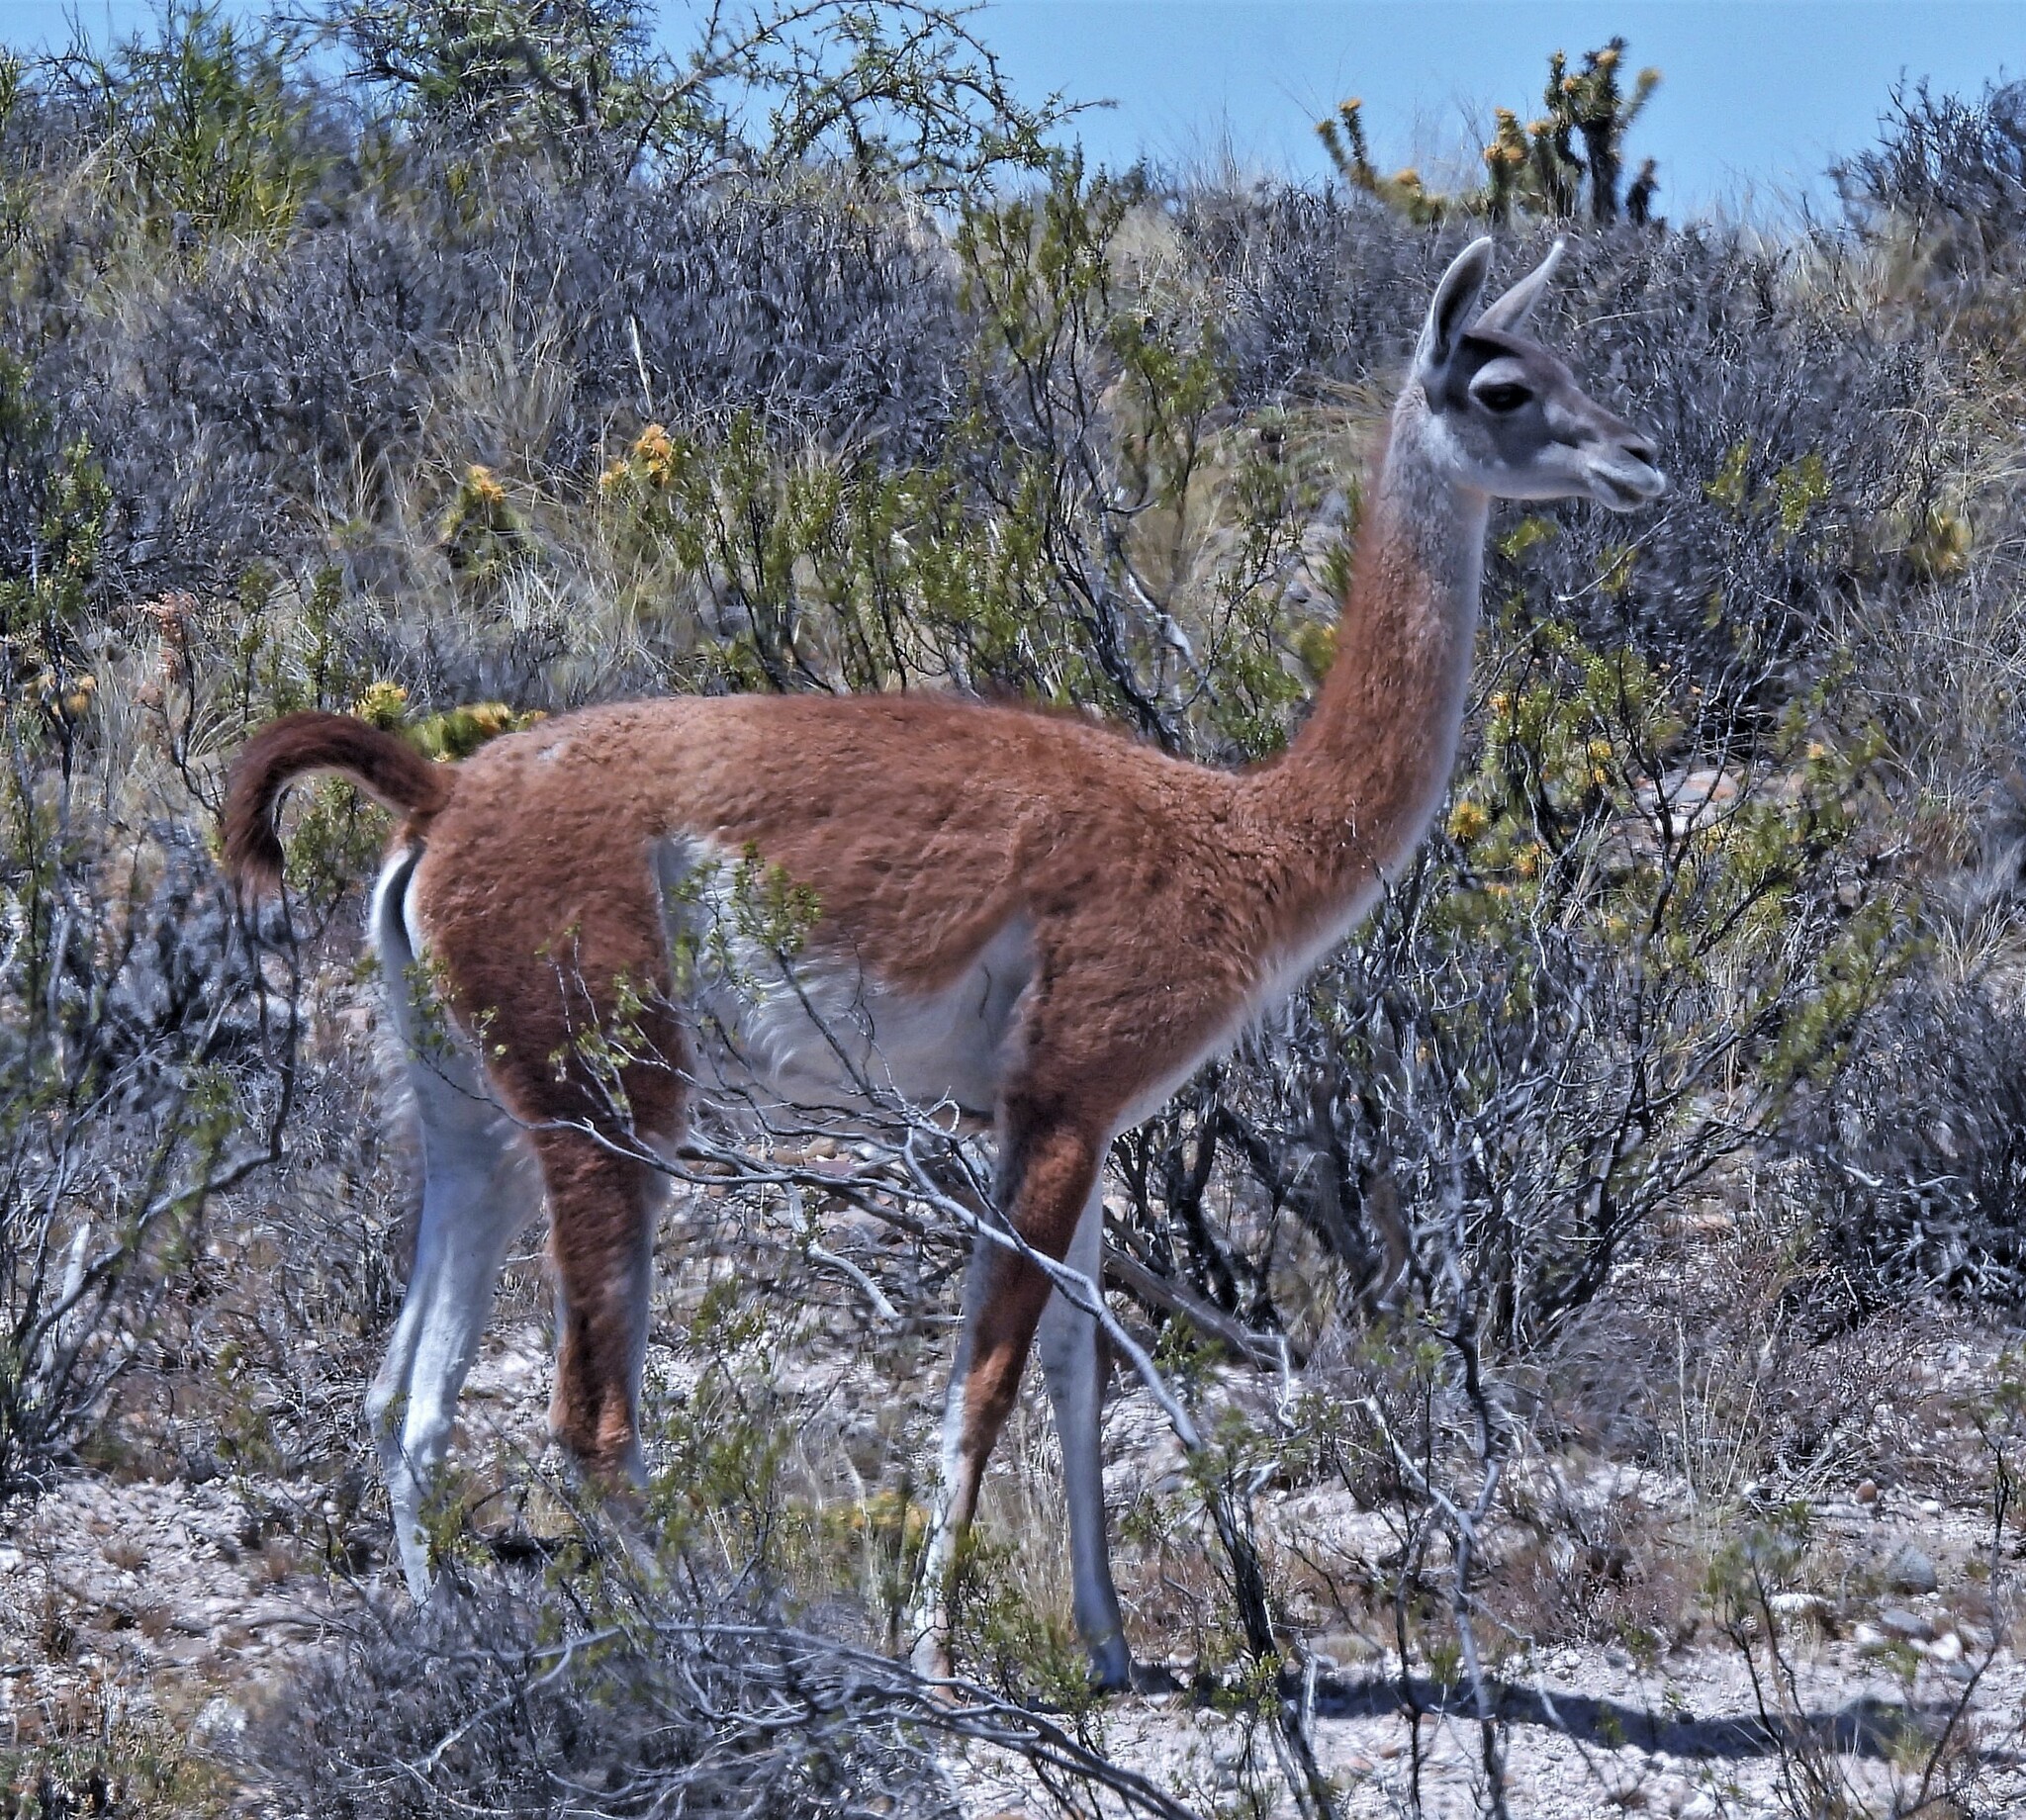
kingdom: Animalia
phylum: Chordata
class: Mammalia
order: Artiodactyla
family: Camelidae
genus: Lama
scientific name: Lama glama
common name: Llama
